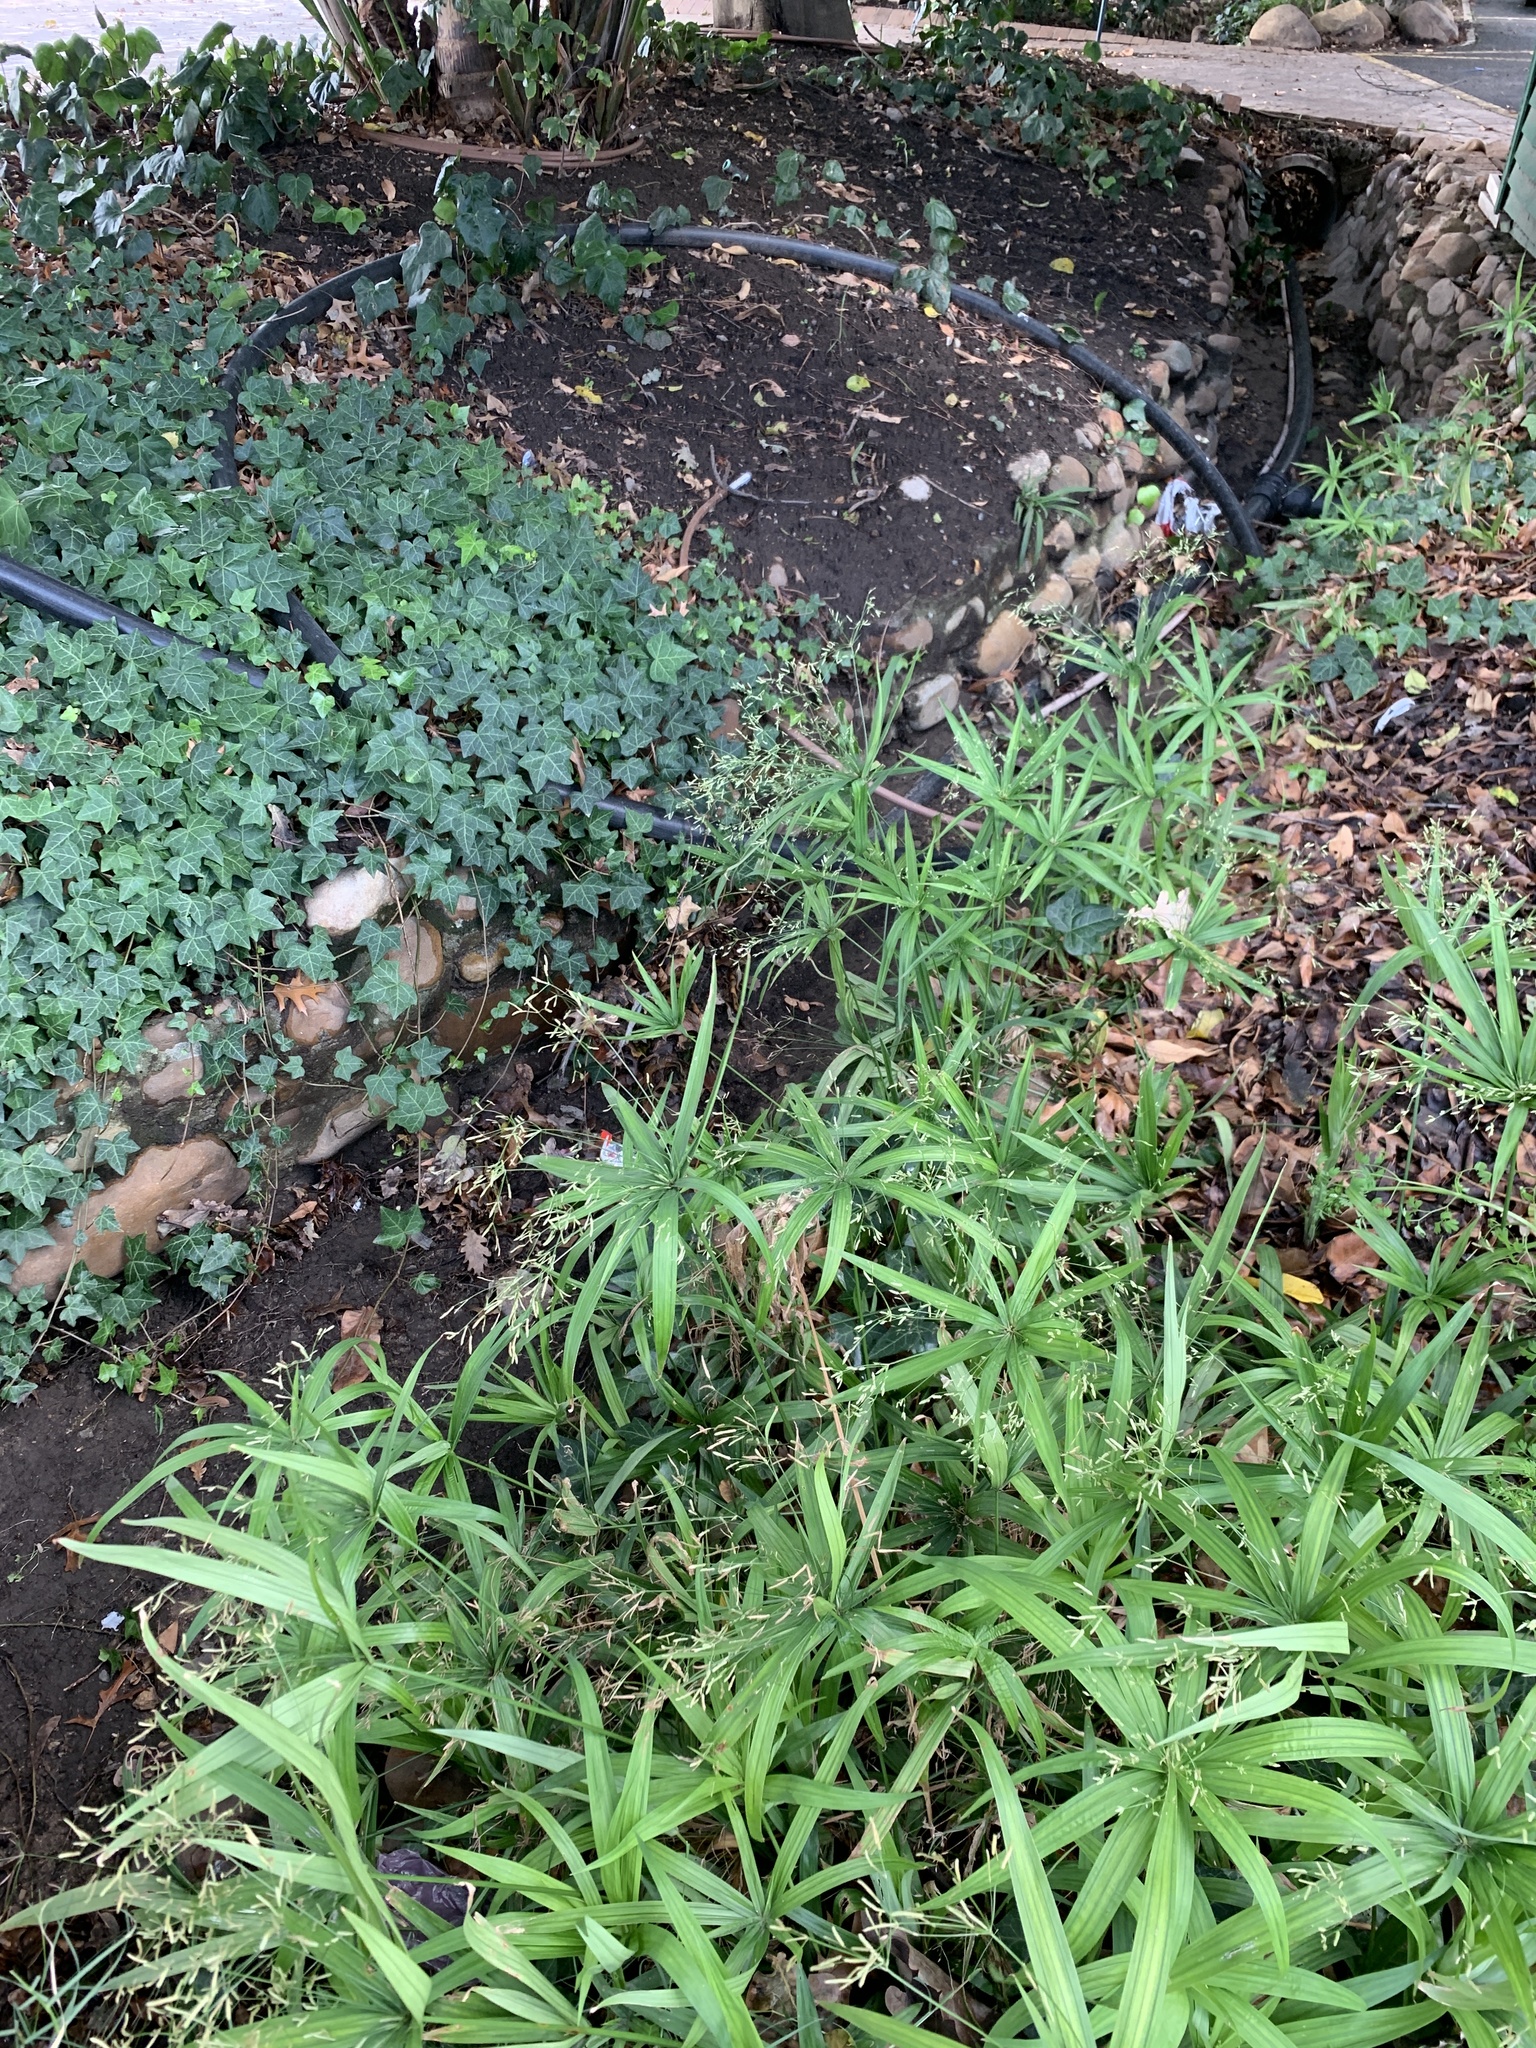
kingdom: Plantae
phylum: Tracheophyta
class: Liliopsida
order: Poales
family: Cyperaceae
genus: Cyperus
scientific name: Cyperus albostriatus
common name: Dwarf umbrella-grass
